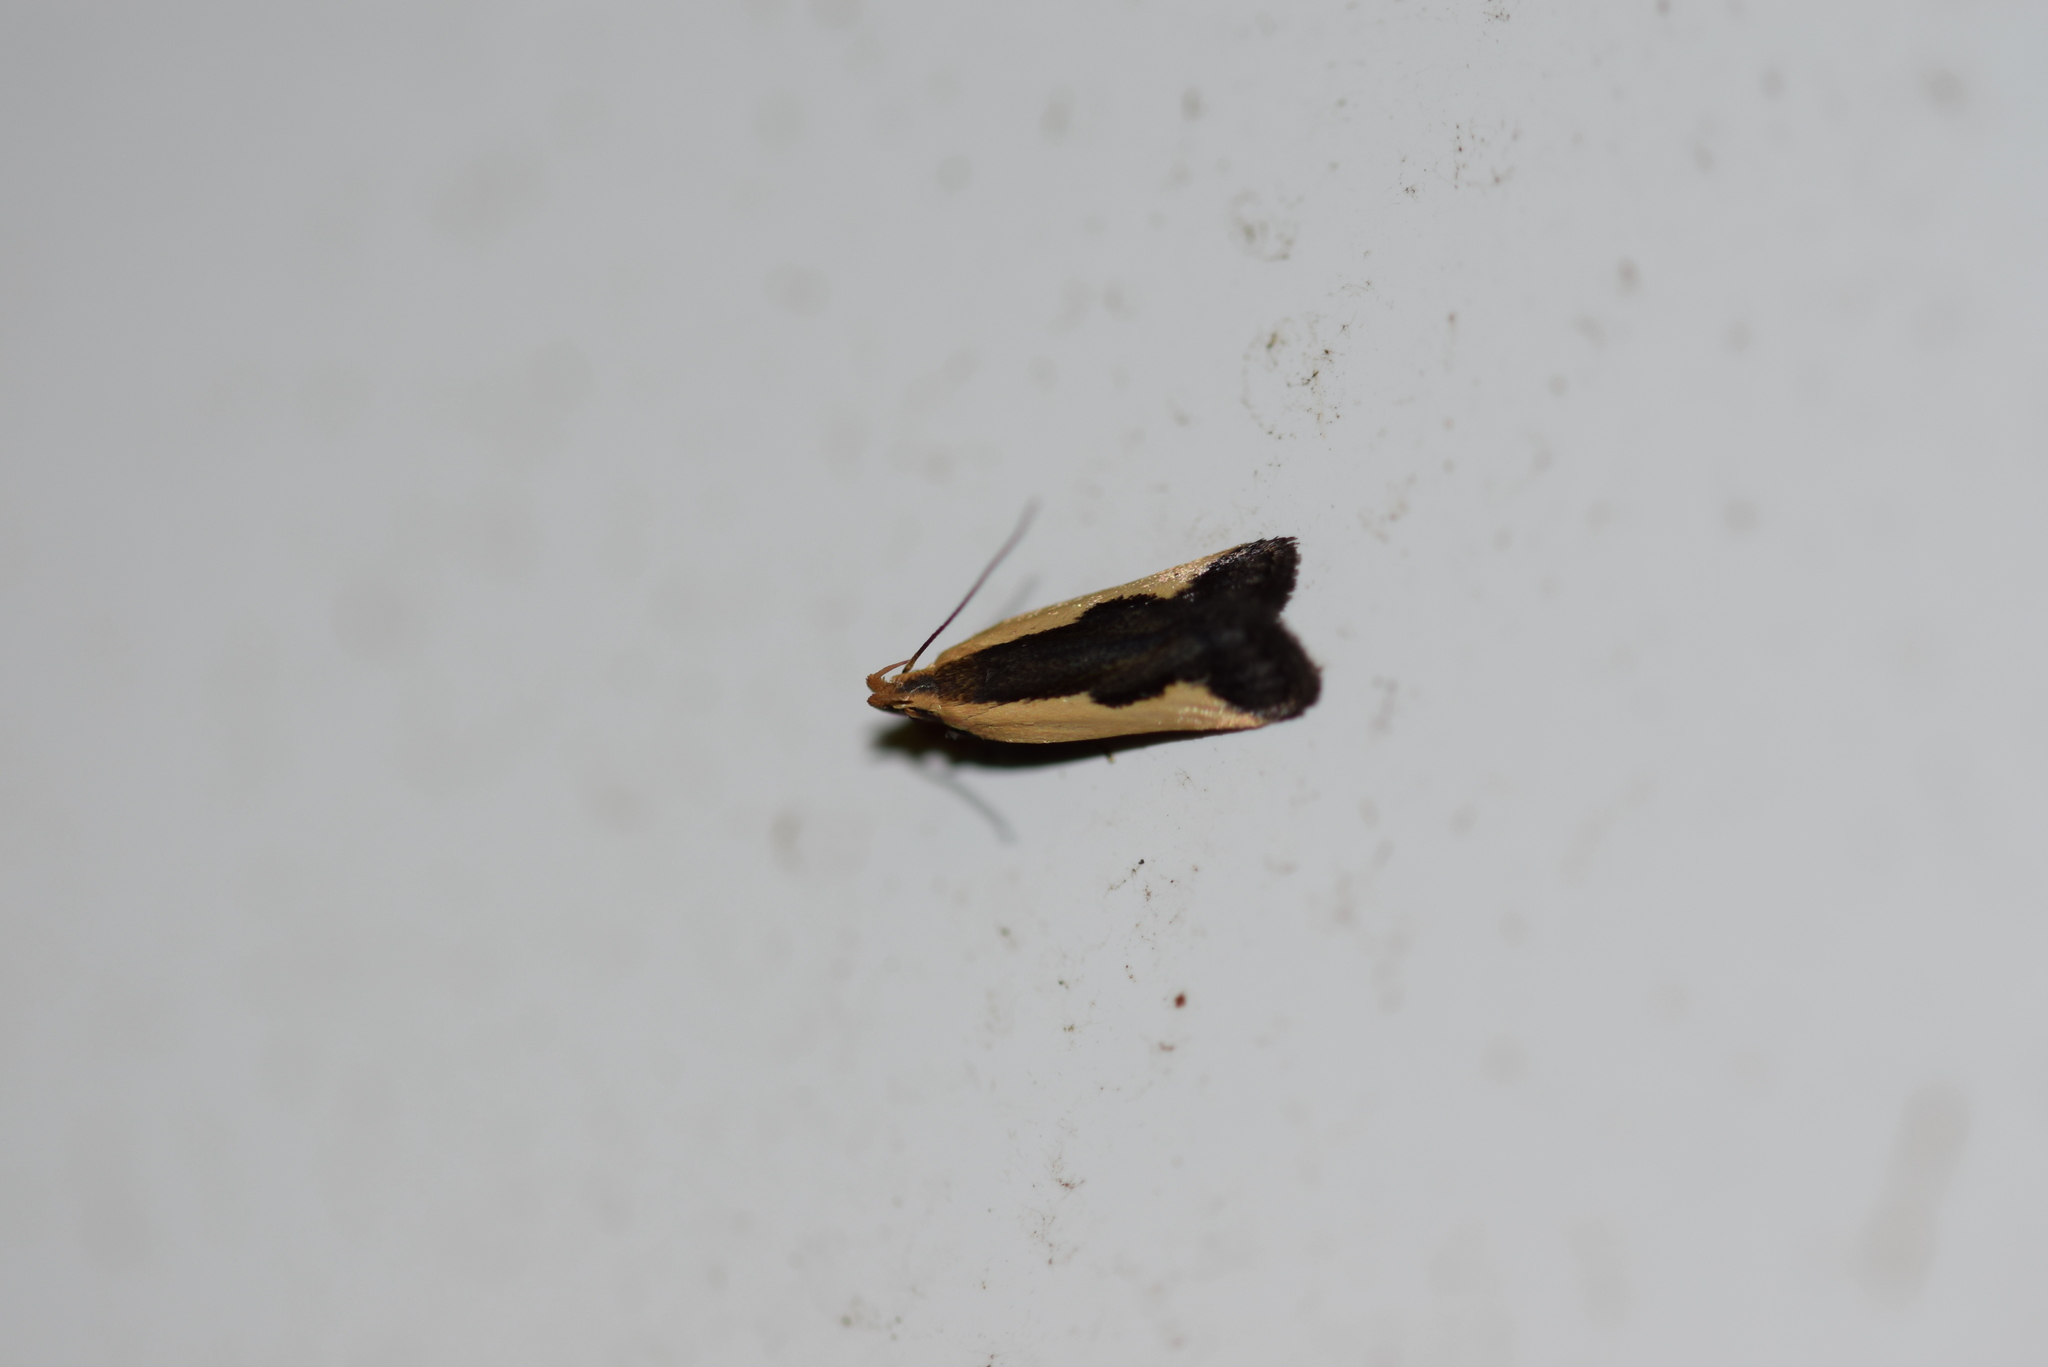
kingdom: Animalia
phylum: Arthropoda
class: Insecta
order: Lepidoptera
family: Gelechiidae
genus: Dichomeris
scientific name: Dichomeris inserrata
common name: Indented dichomeris moth
